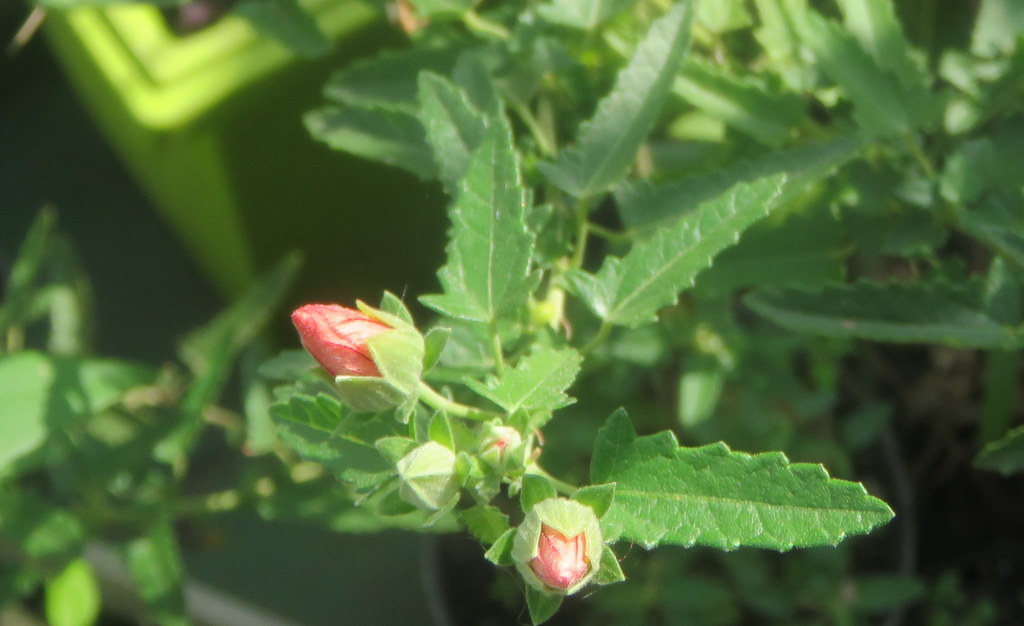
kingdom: Plantae
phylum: Tracheophyta
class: Magnoliopsida
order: Malvales
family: Malvaceae
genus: Pavonia
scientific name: Pavonia hastata
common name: Spearleaf swampmallow
